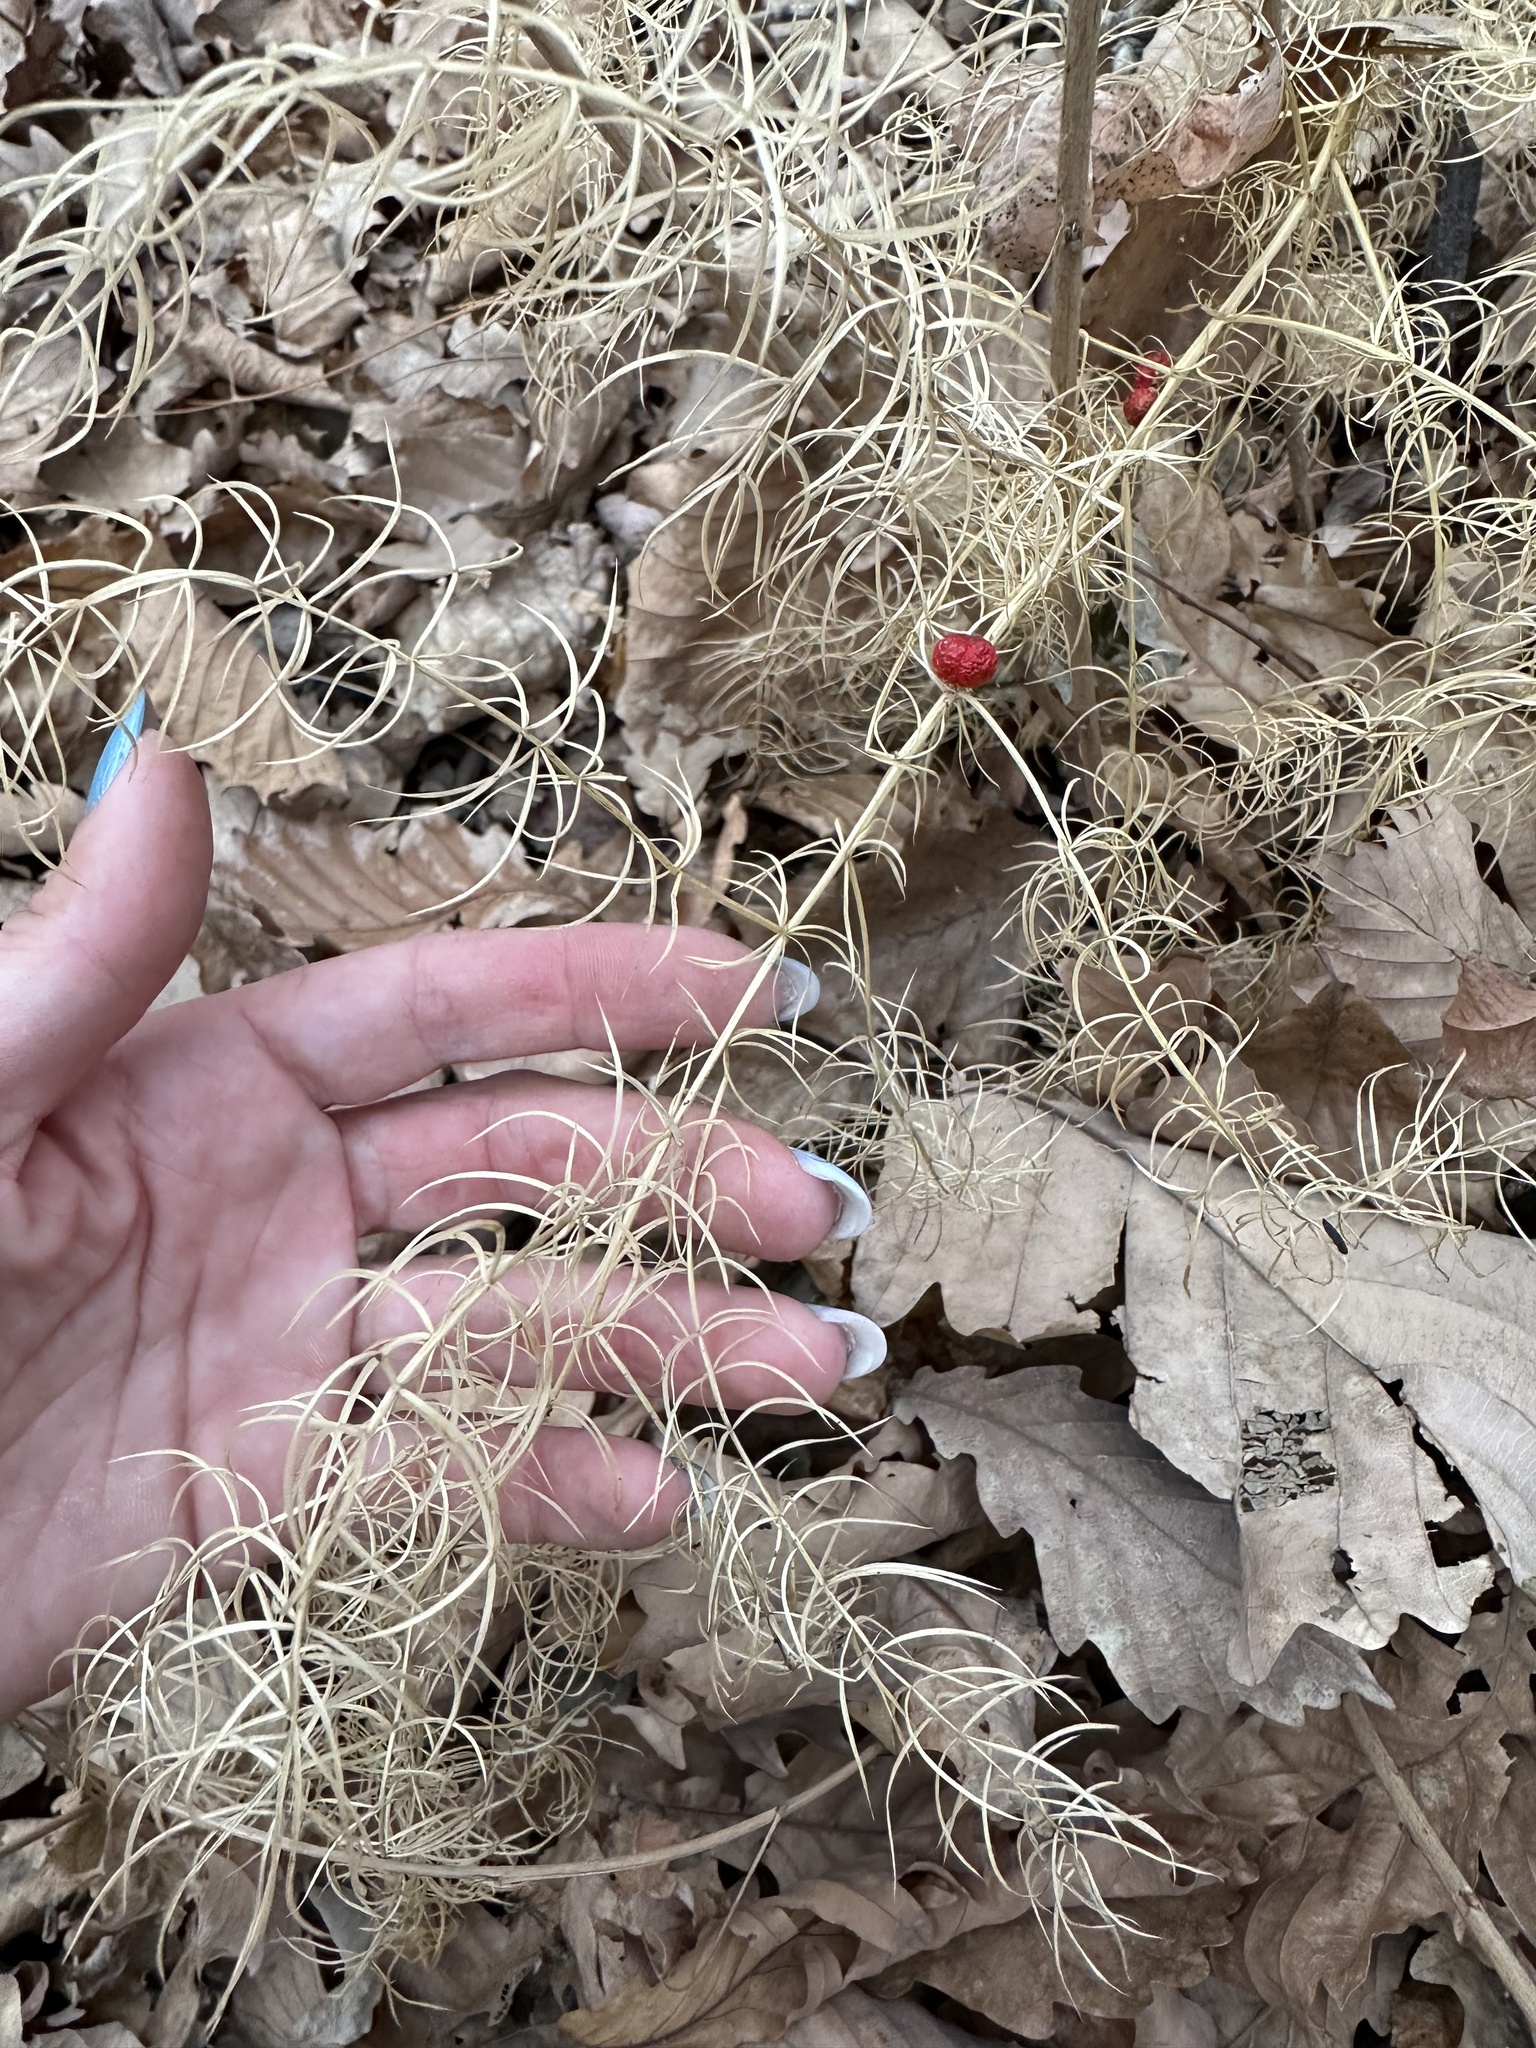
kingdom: Plantae
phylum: Tracheophyta
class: Liliopsida
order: Asparagales
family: Asparagaceae
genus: Asparagus
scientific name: Asparagus schoberioides
